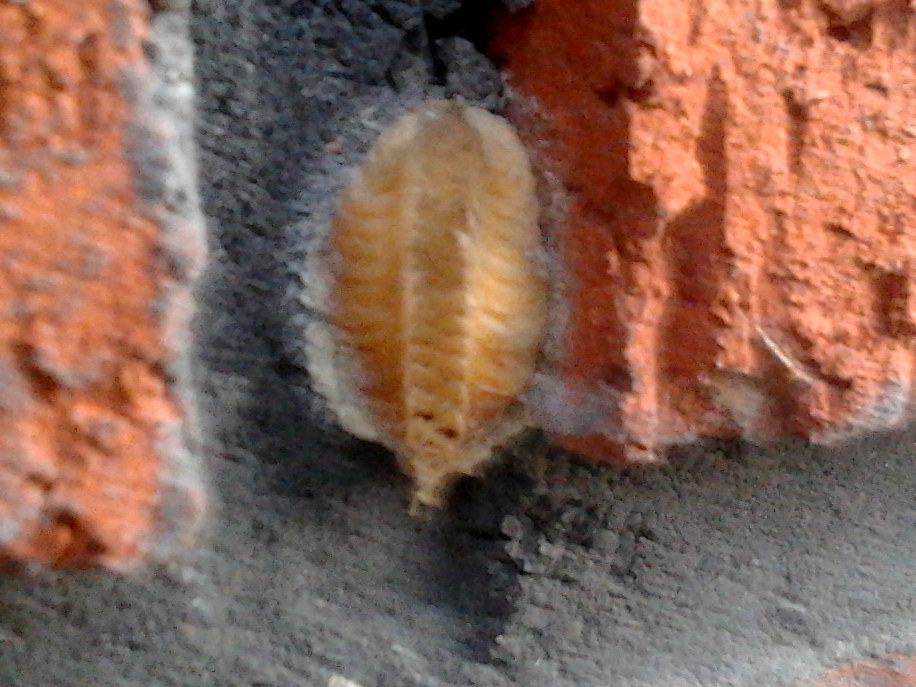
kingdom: Animalia
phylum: Arthropoda
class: Insecta
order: Mantodea
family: Miomantidae
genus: Miomantis
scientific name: Miomantis caffra
